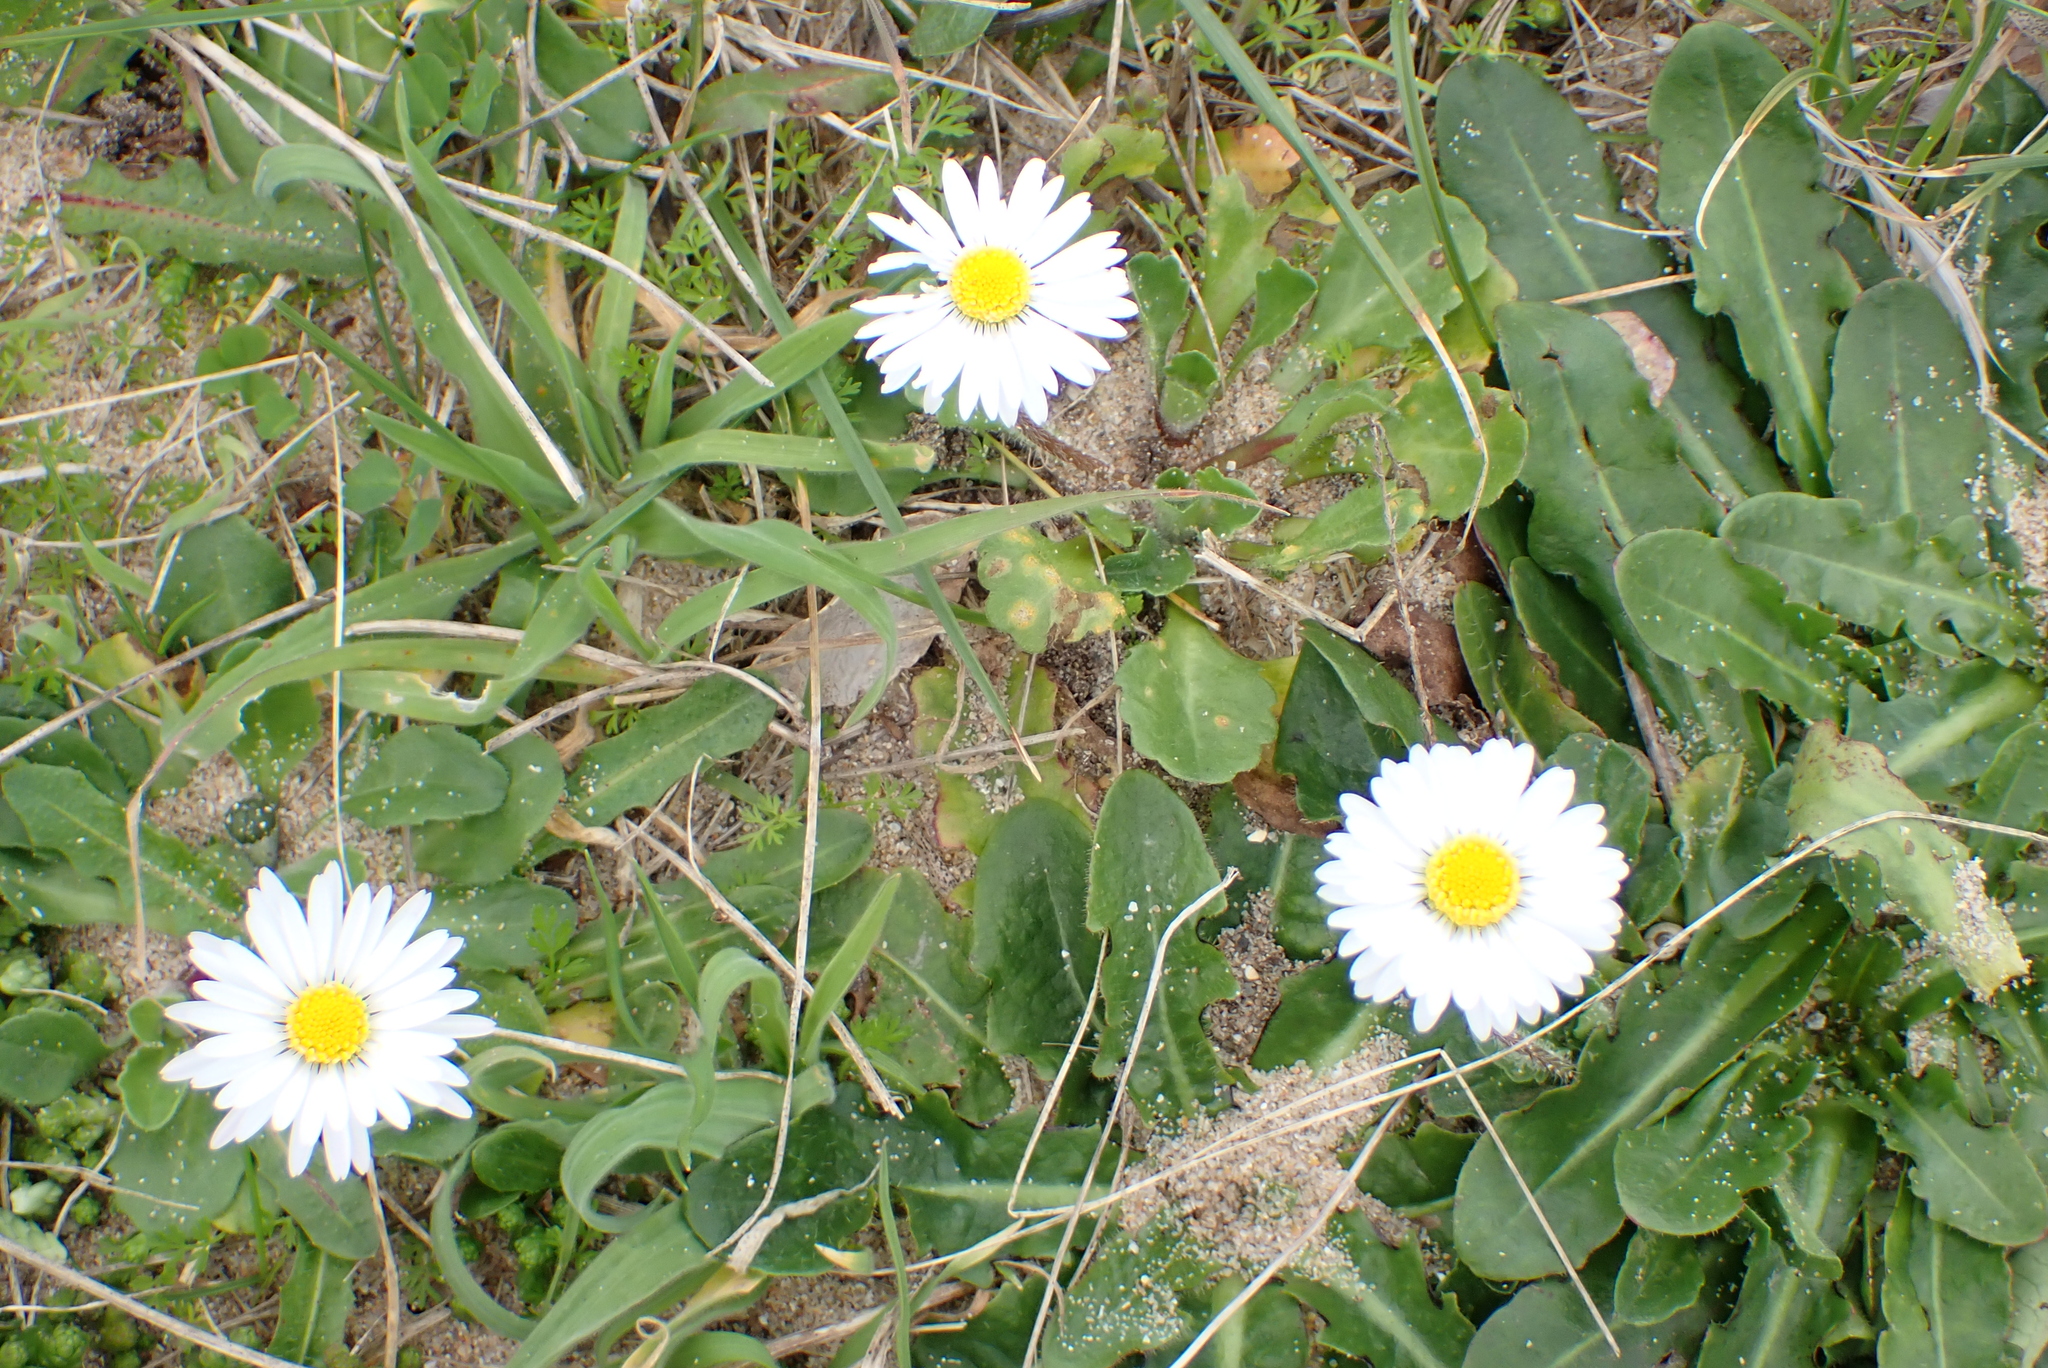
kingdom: Plantae
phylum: Tracheophyta
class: Magnoliopsida
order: Asterales
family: Asteraceae
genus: Bellis
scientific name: Bellis perennis
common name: Lawndaisy
